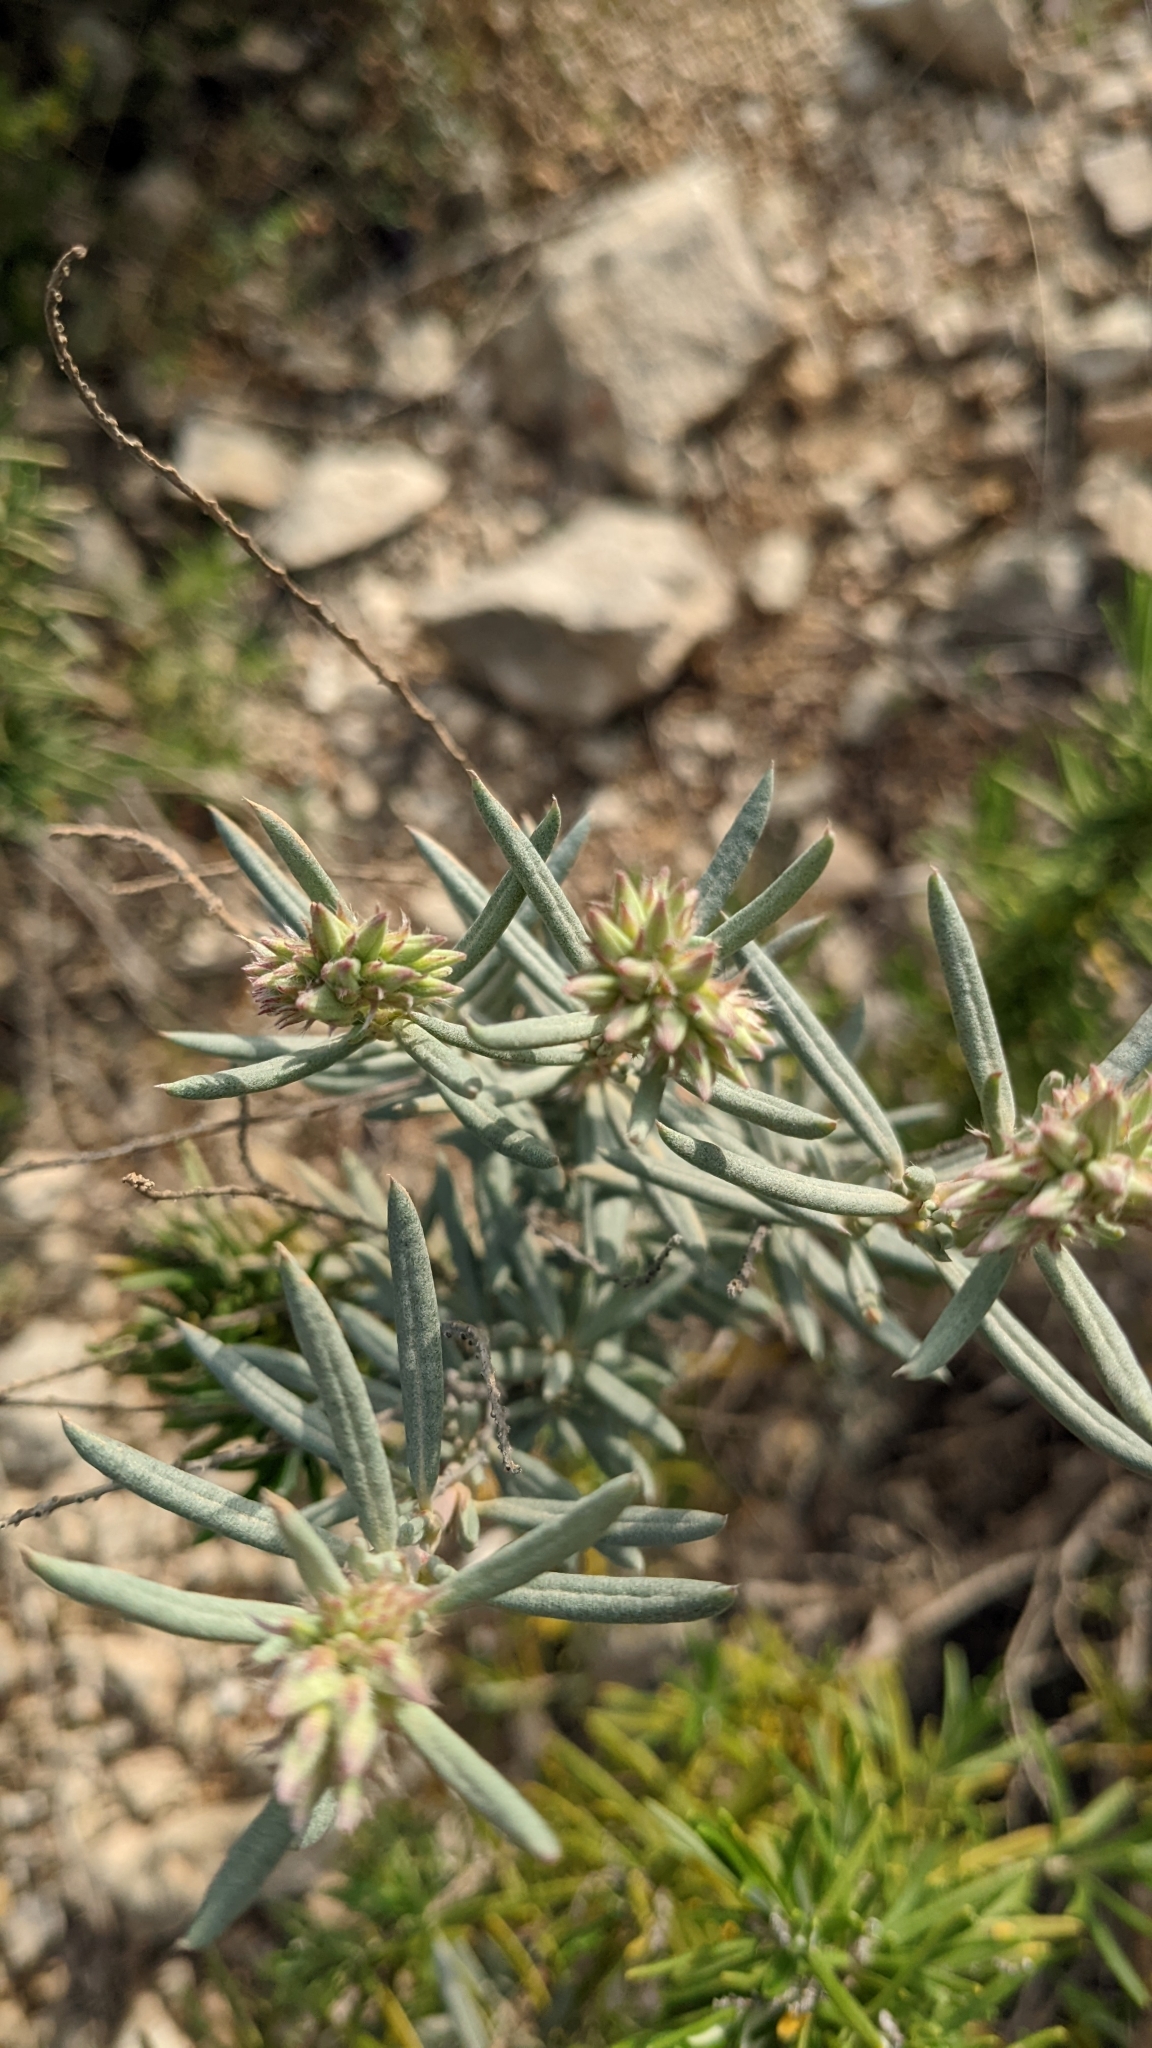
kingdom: Plantae
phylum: Tracheophyta
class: Magnoliopsida
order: Malvales
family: Cistaceae
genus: Helianthemum
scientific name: Helianthemum syriacum
